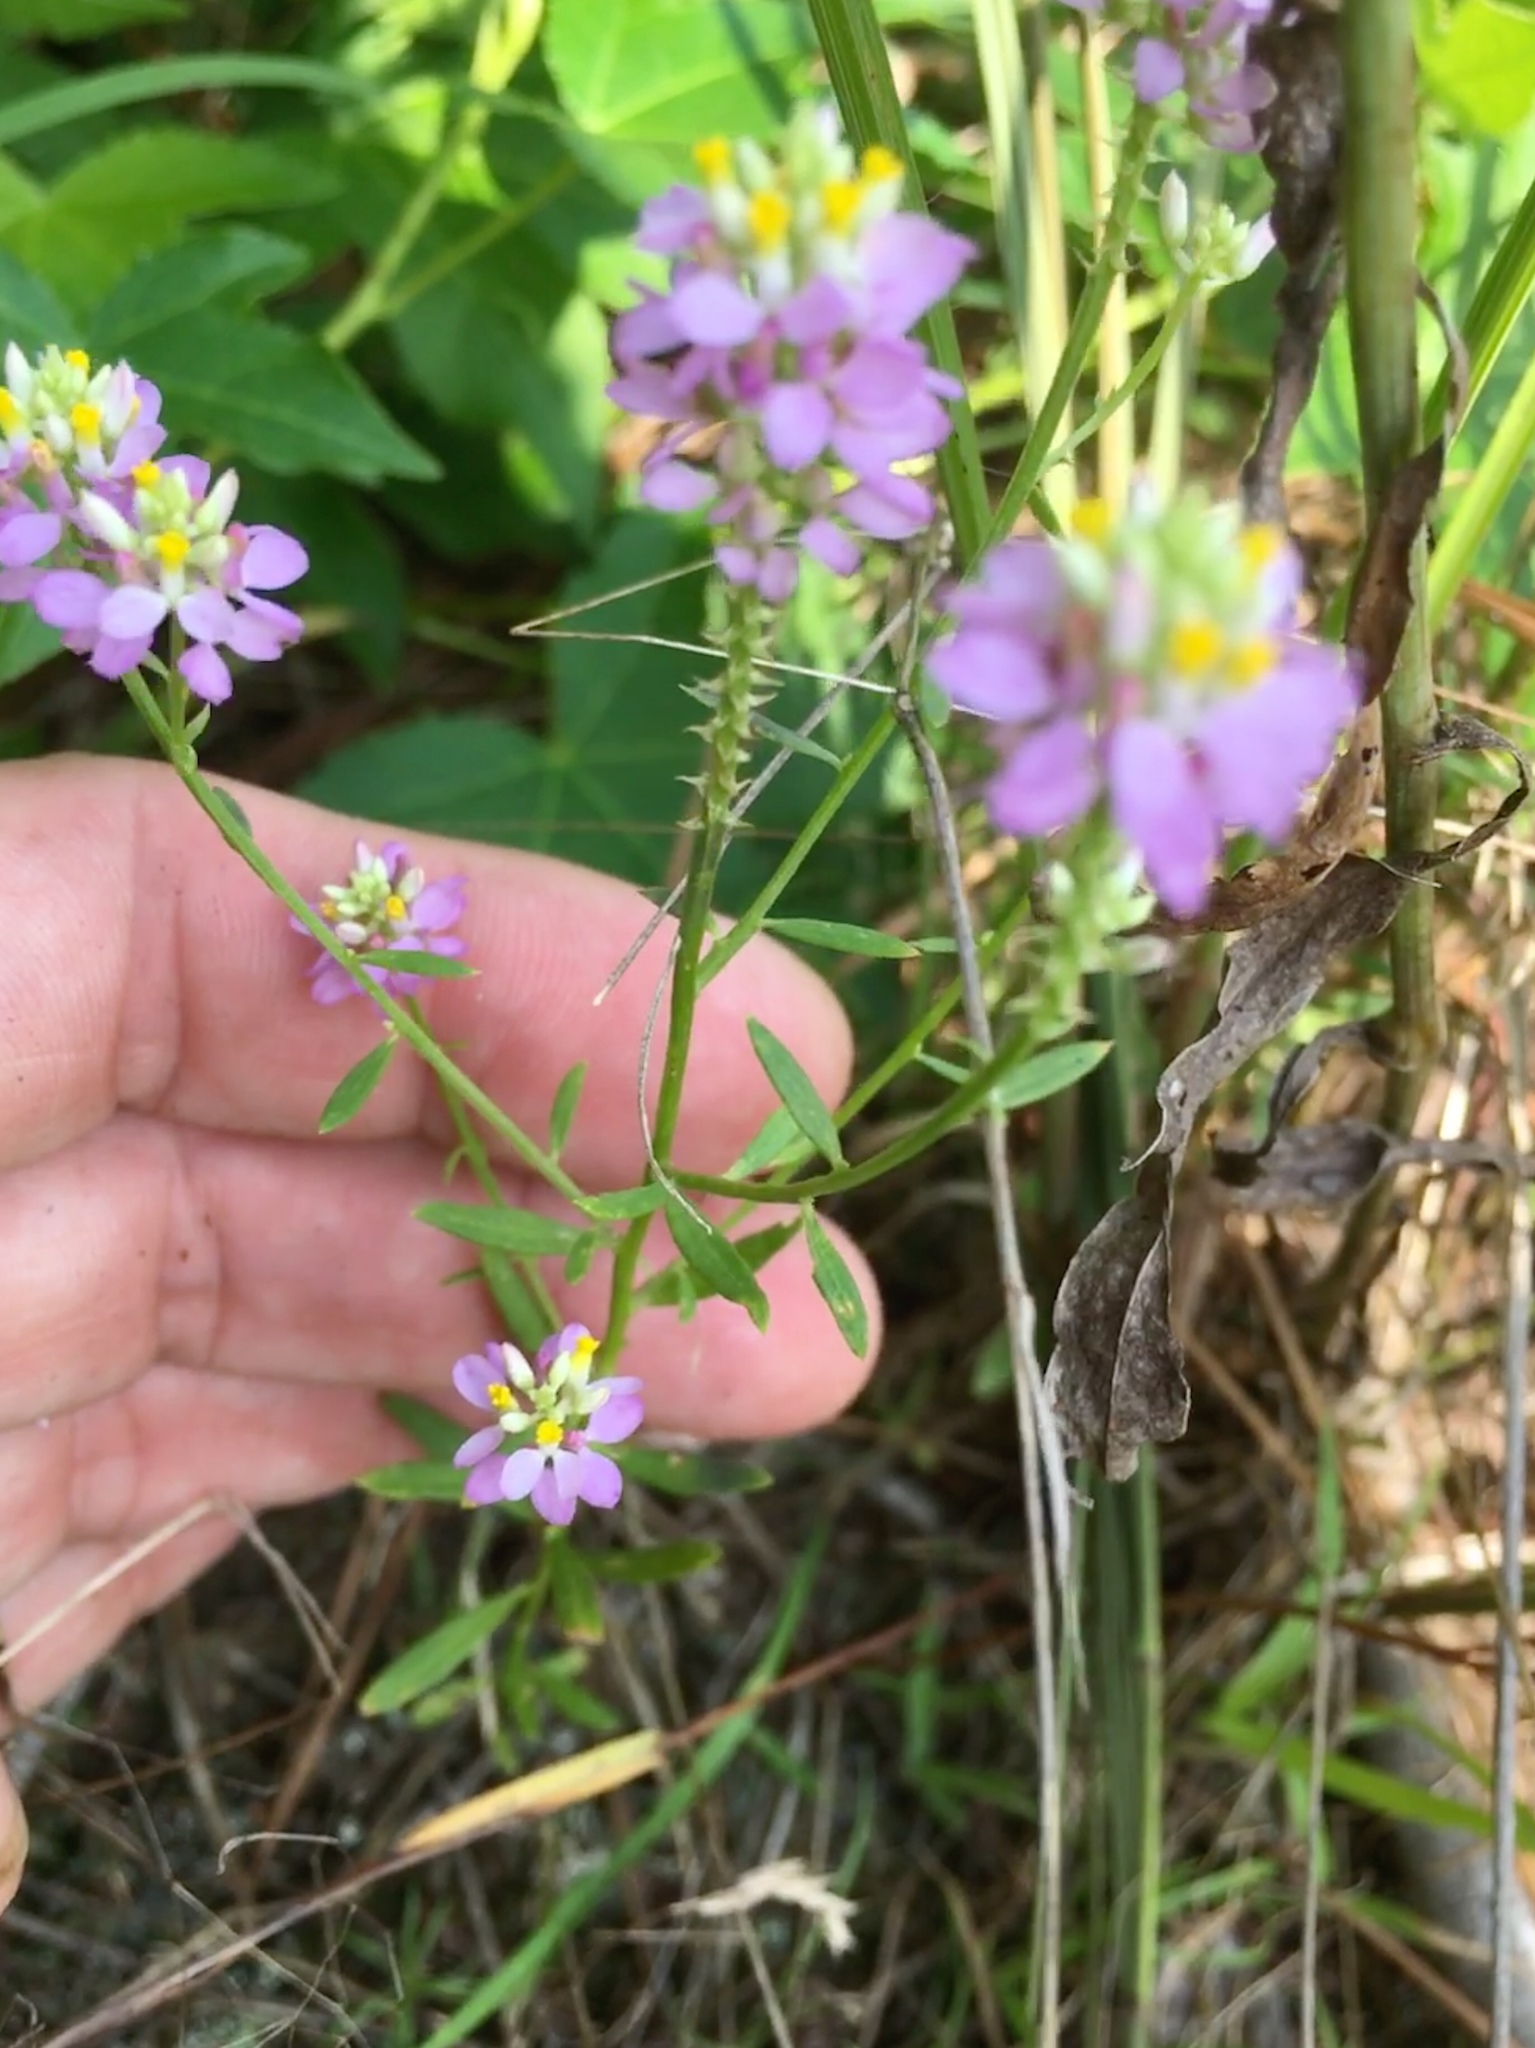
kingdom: Plantae
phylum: Tracheophyta
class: Magnoliopsida
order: Fabales
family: Polygalaceae
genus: Polygala
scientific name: Polygala curtissii
